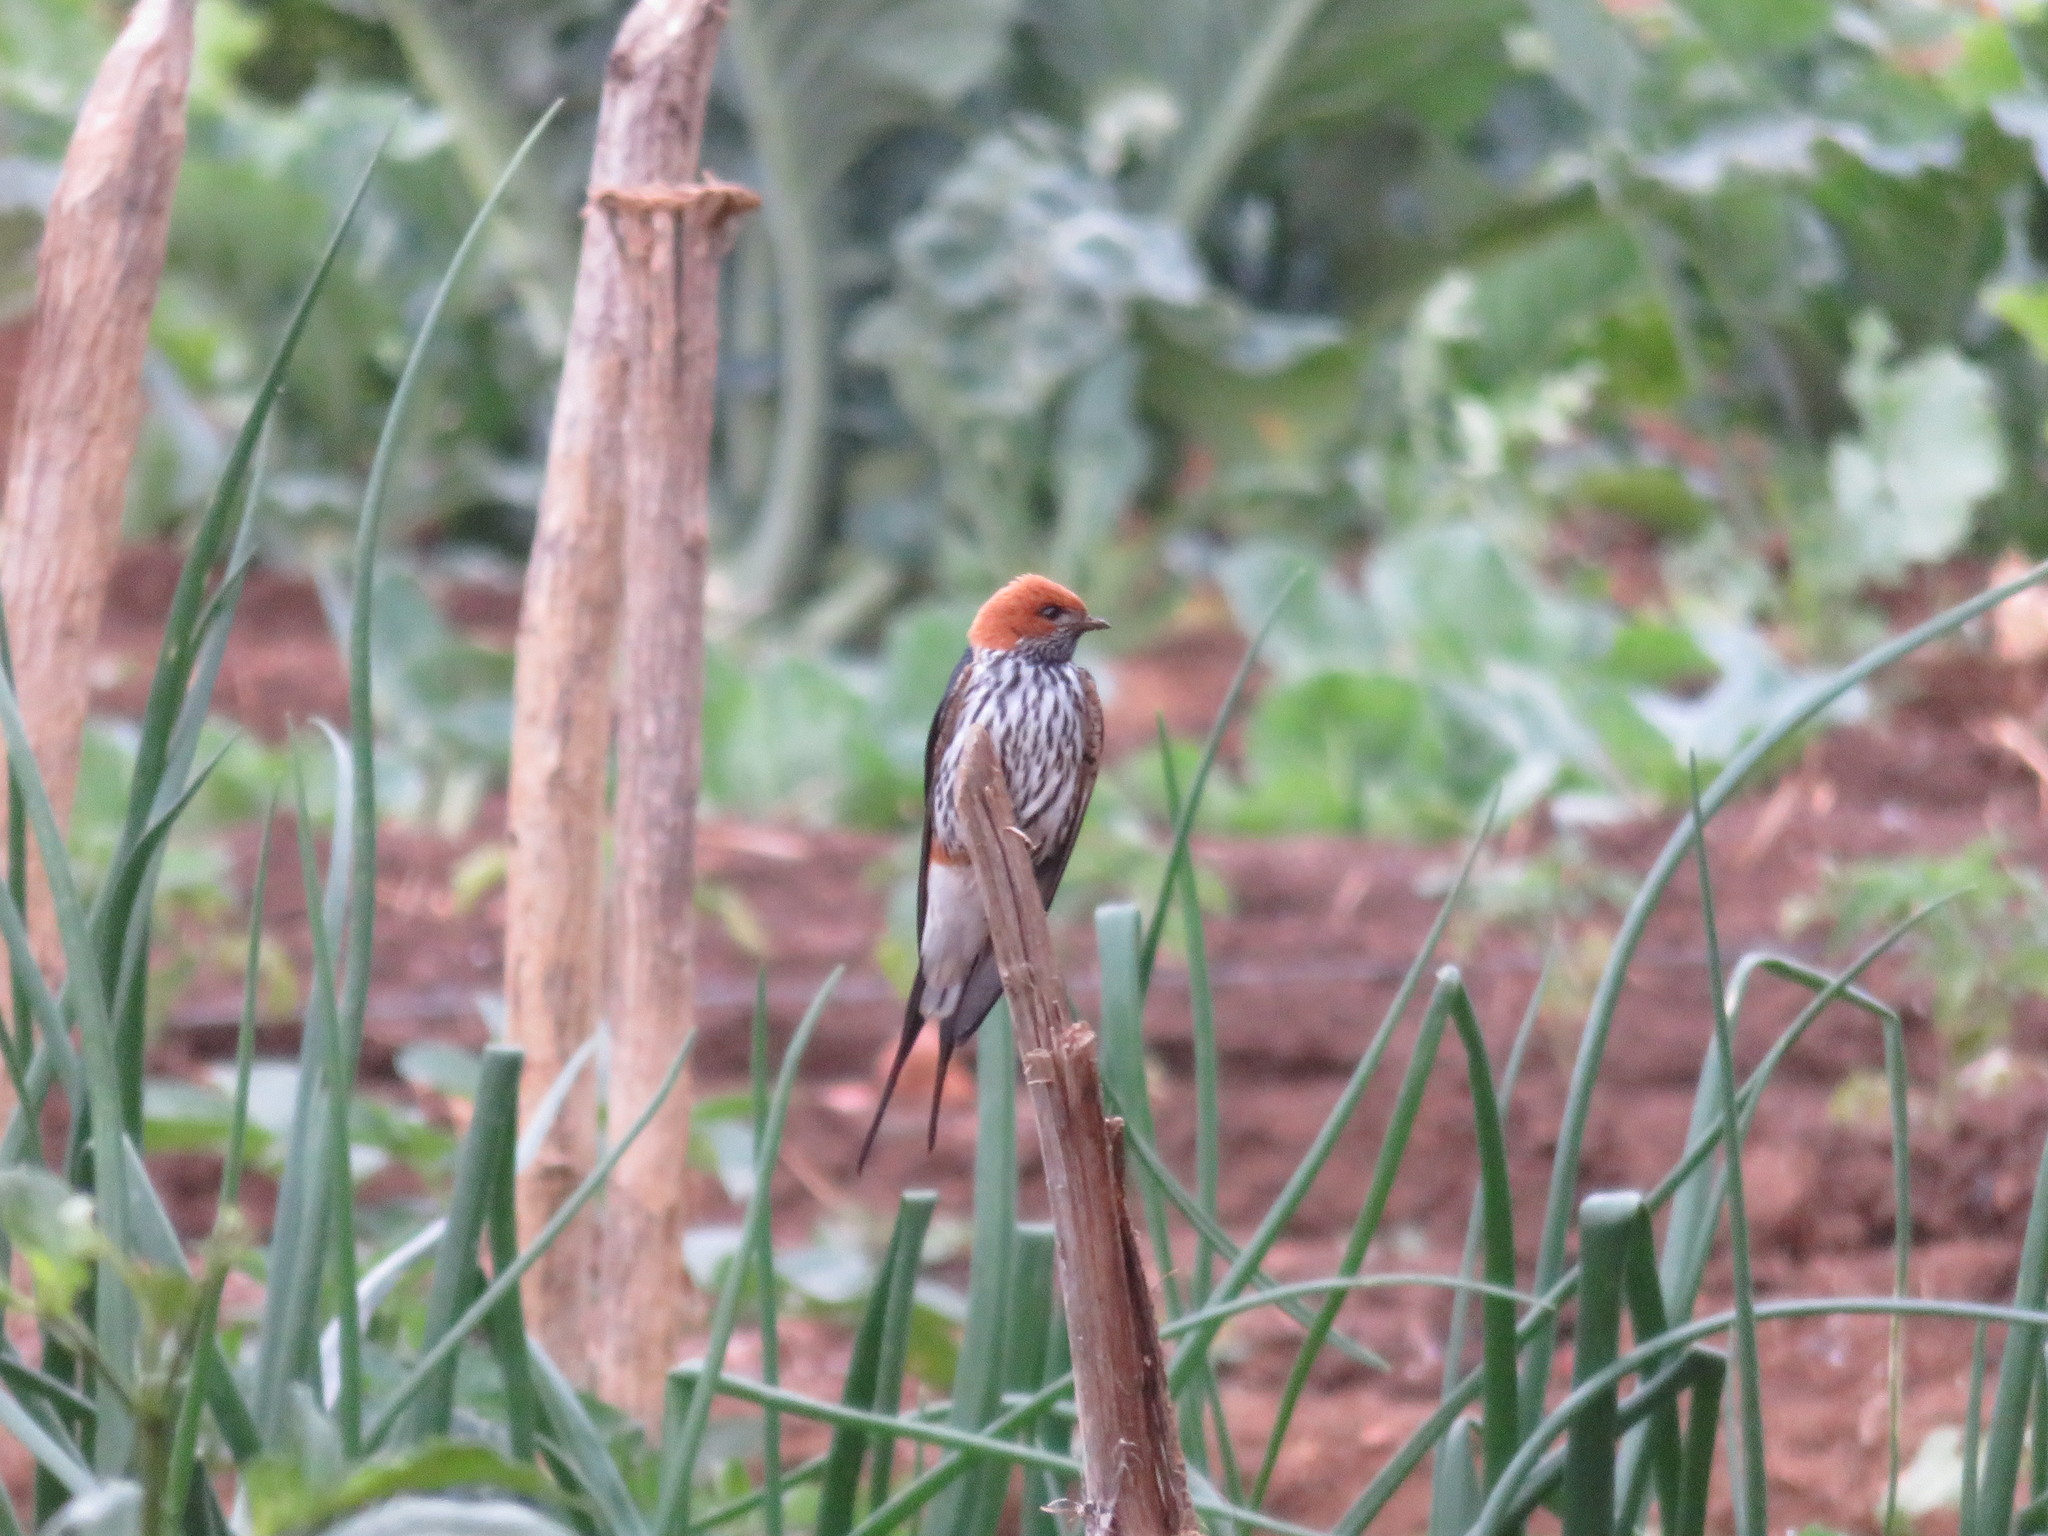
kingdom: Animalia
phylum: Chordata
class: Aves
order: Passeriformes
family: Hirundinidae
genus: Cecropis
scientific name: Cecropis abyssinica
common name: Lesser striped-swallow
